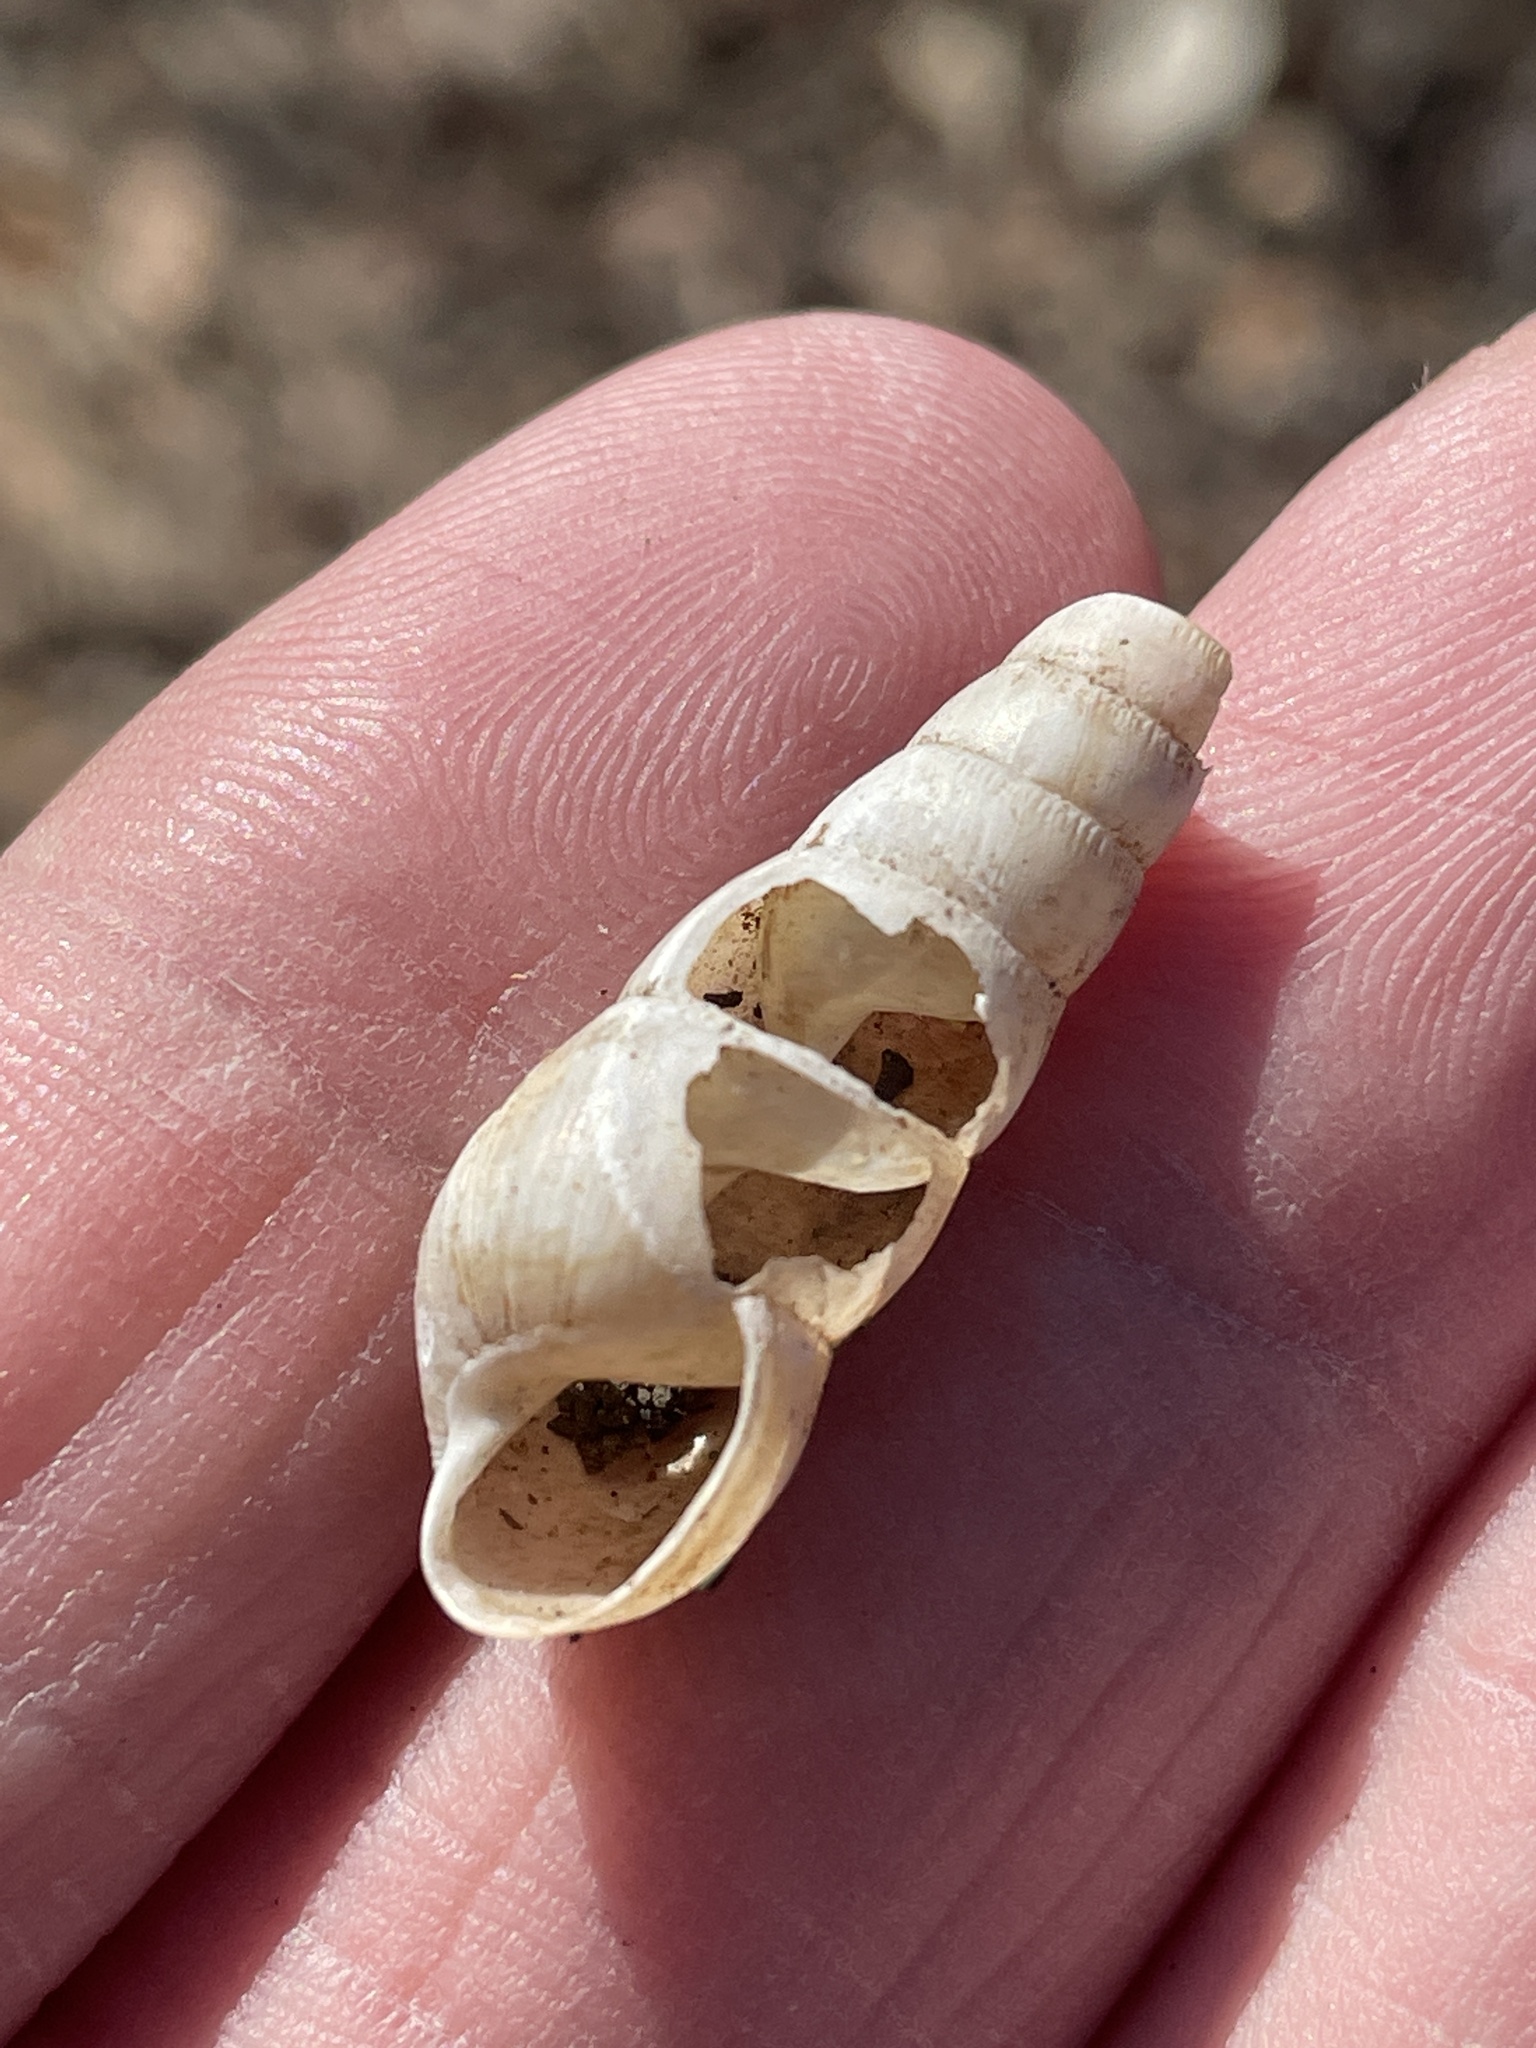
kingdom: Animalia
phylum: Mollusca
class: Gastropoda
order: Stylommatophora
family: Achatinidae
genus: Rumina
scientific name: Rumina decollata
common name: Decollate snail
